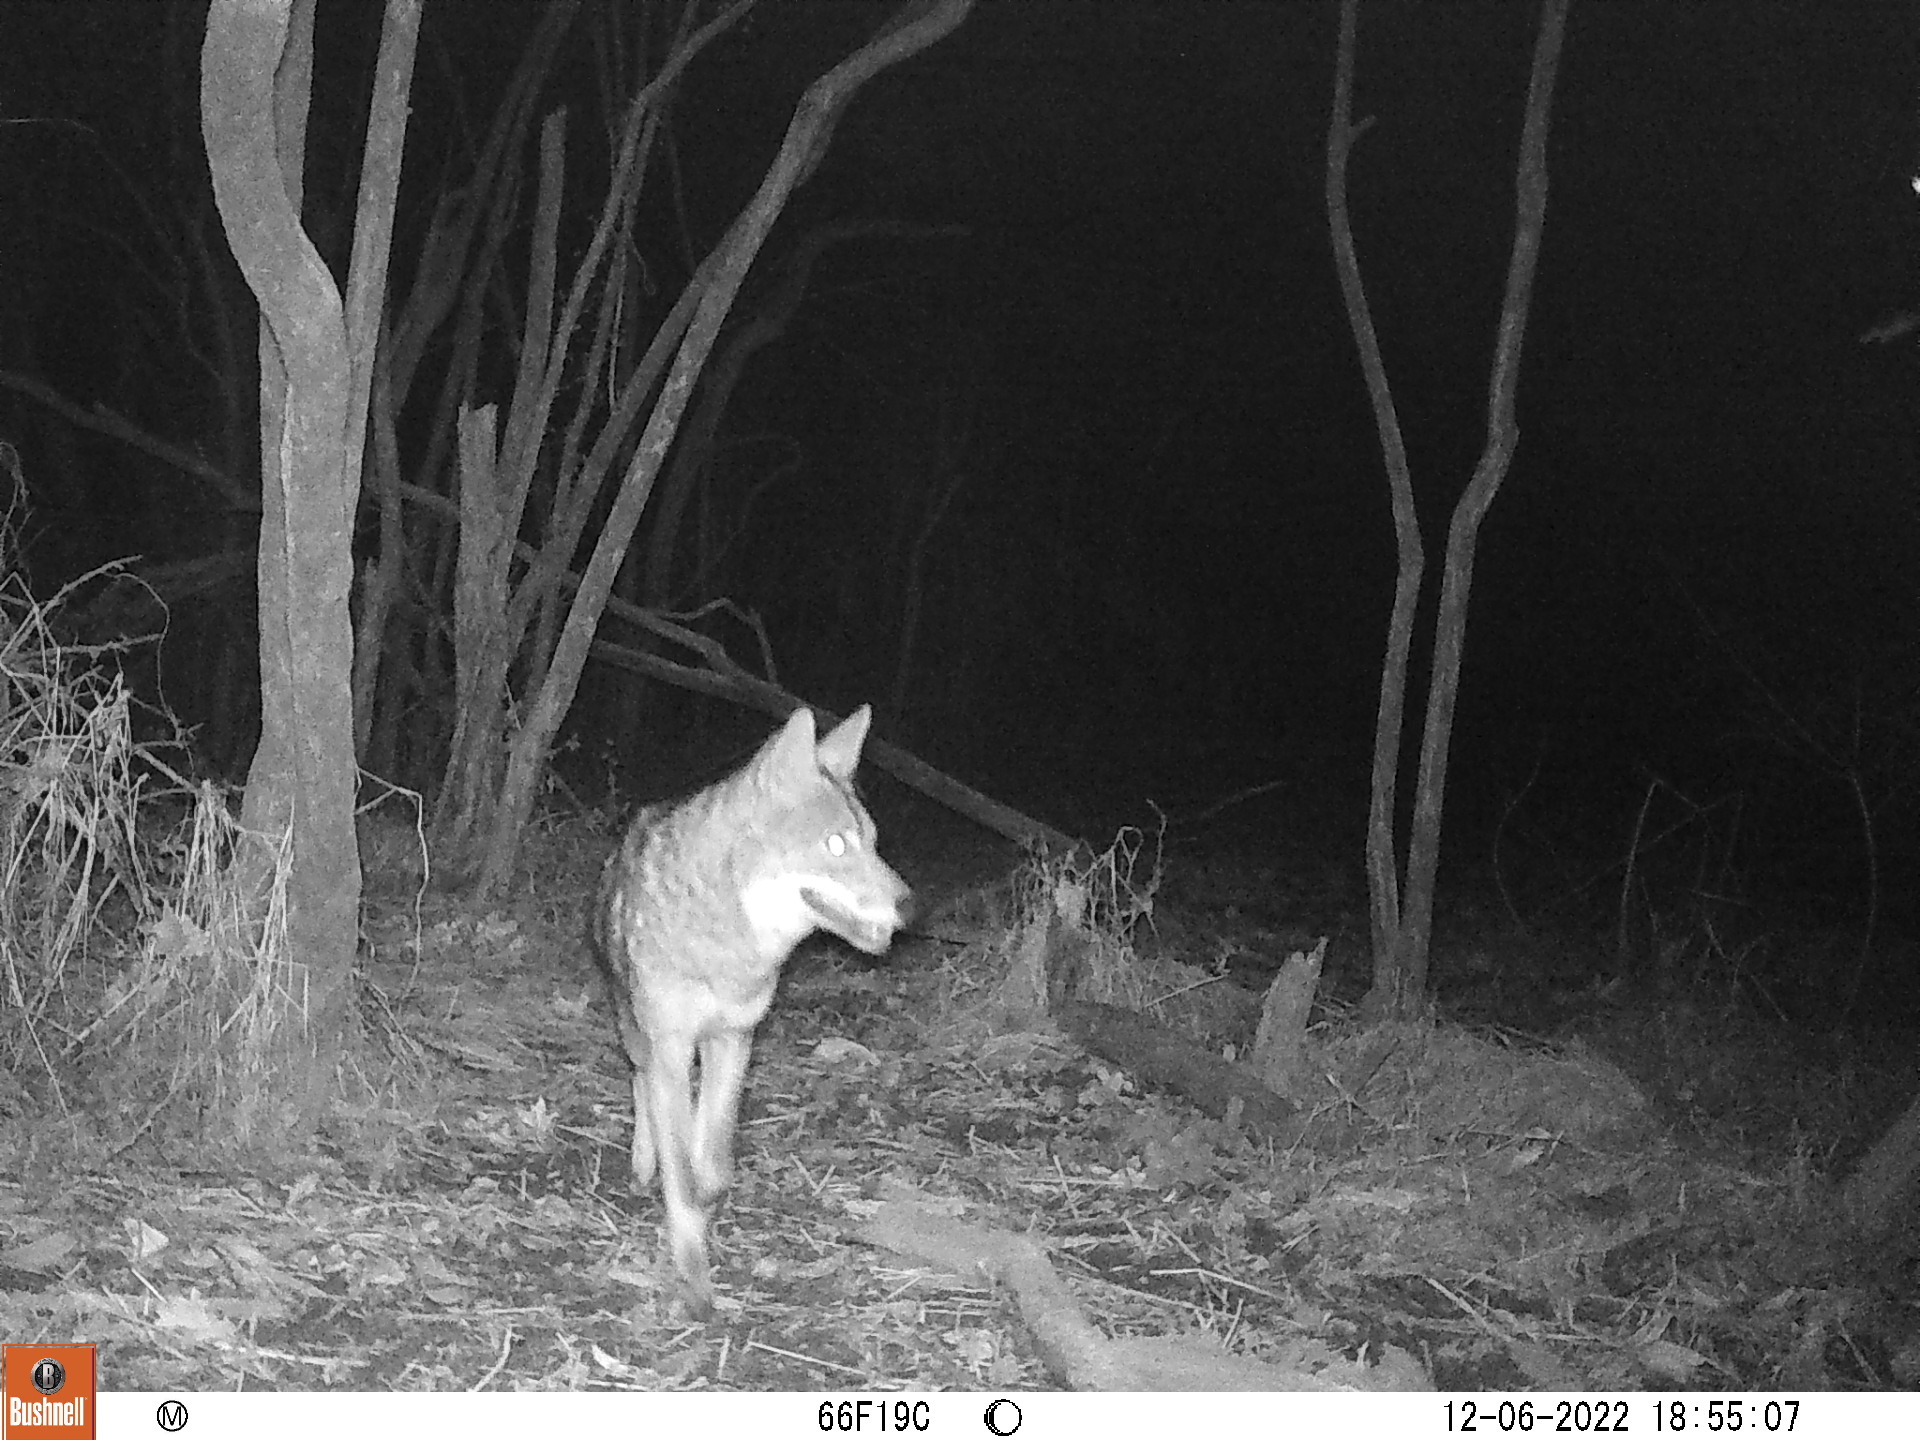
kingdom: Animalia
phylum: Chordata
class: Mammalia
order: Carnivora
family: Canidae
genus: Canis
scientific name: Canis latrans
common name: Coyote
